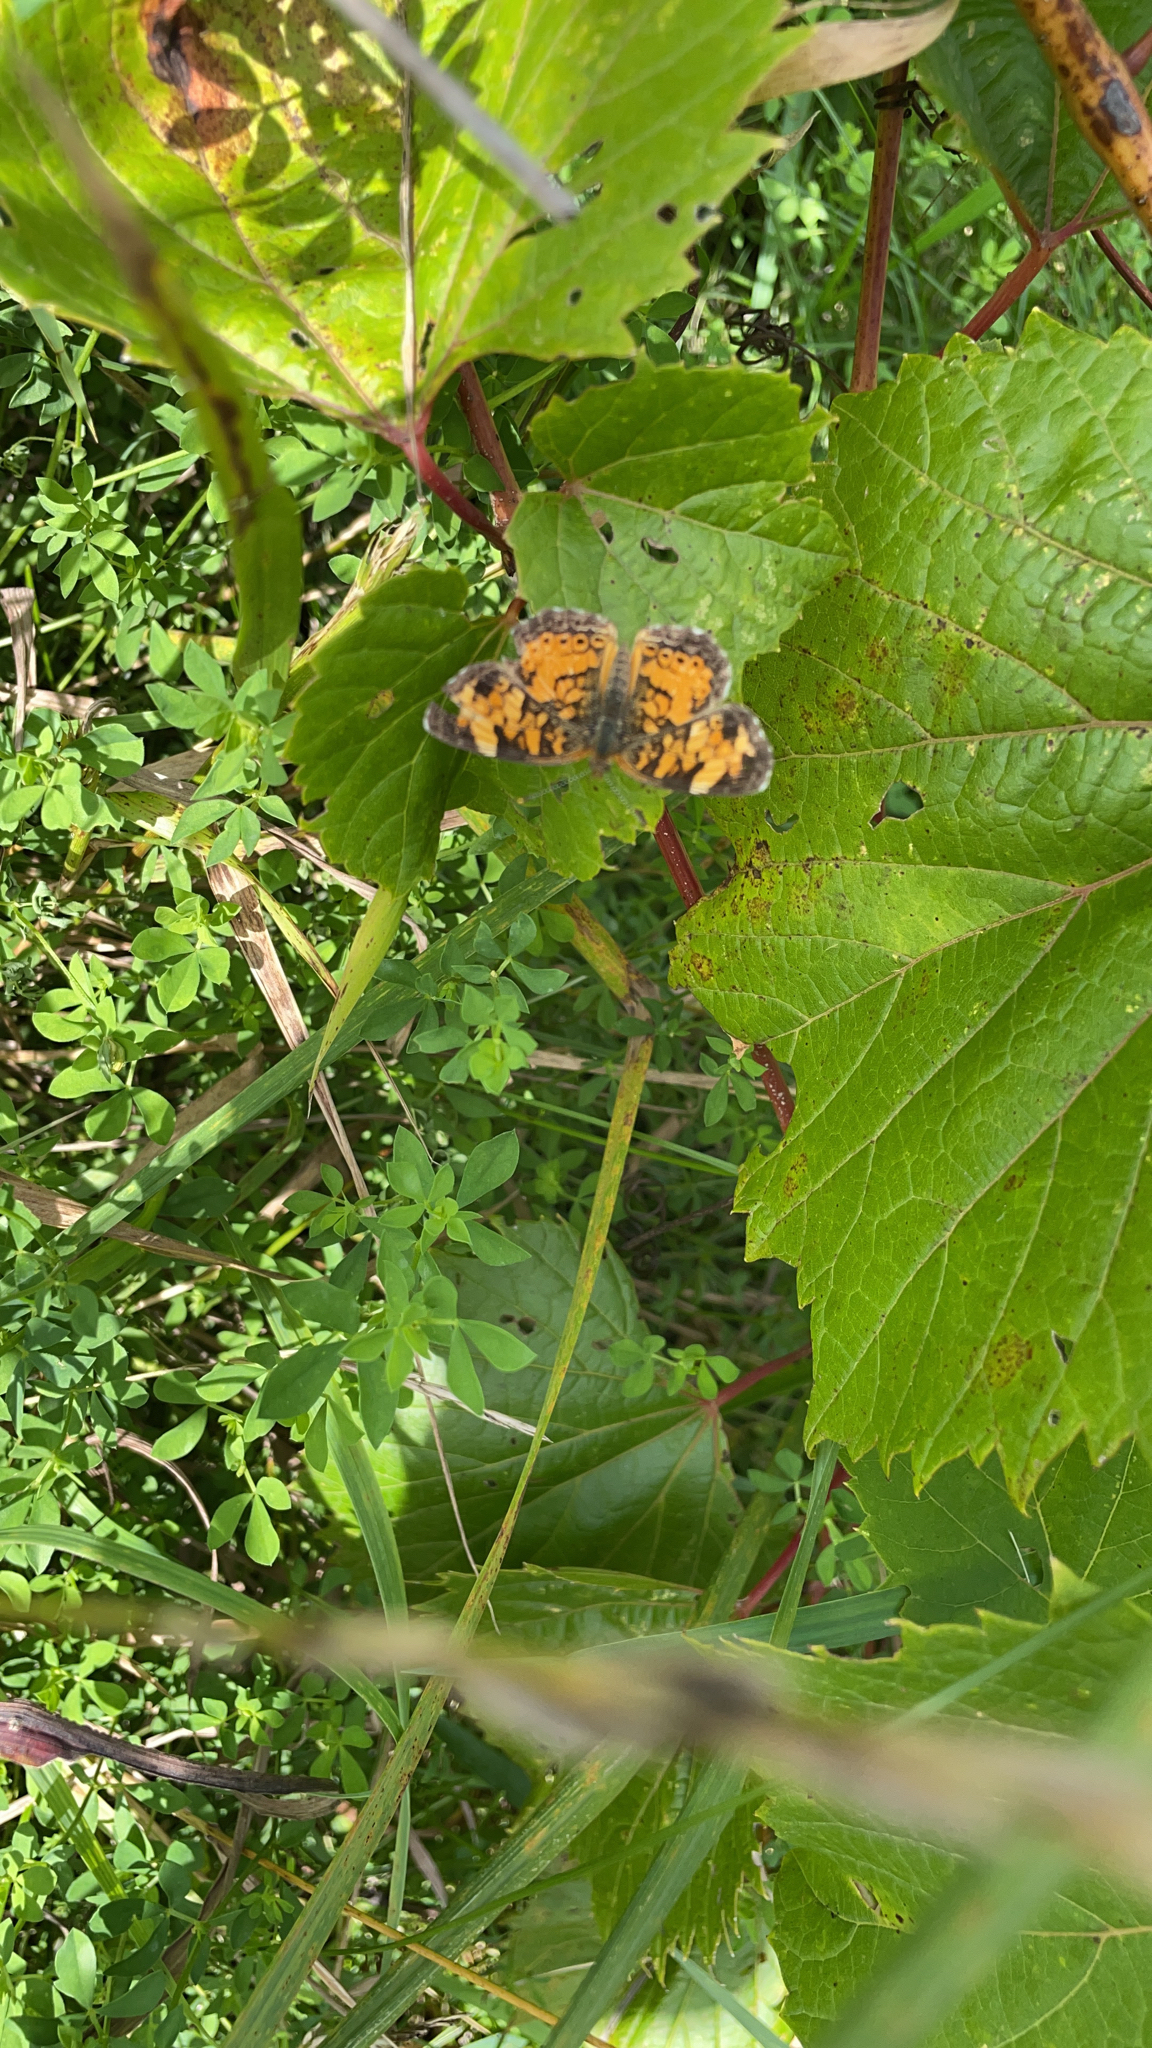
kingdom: Animalia
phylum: Arthropoda
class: Insecta
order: Lepidoptera
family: Nymphalidae
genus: Phyciodes
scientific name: Phyciodes tharos
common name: Pearl crescent
